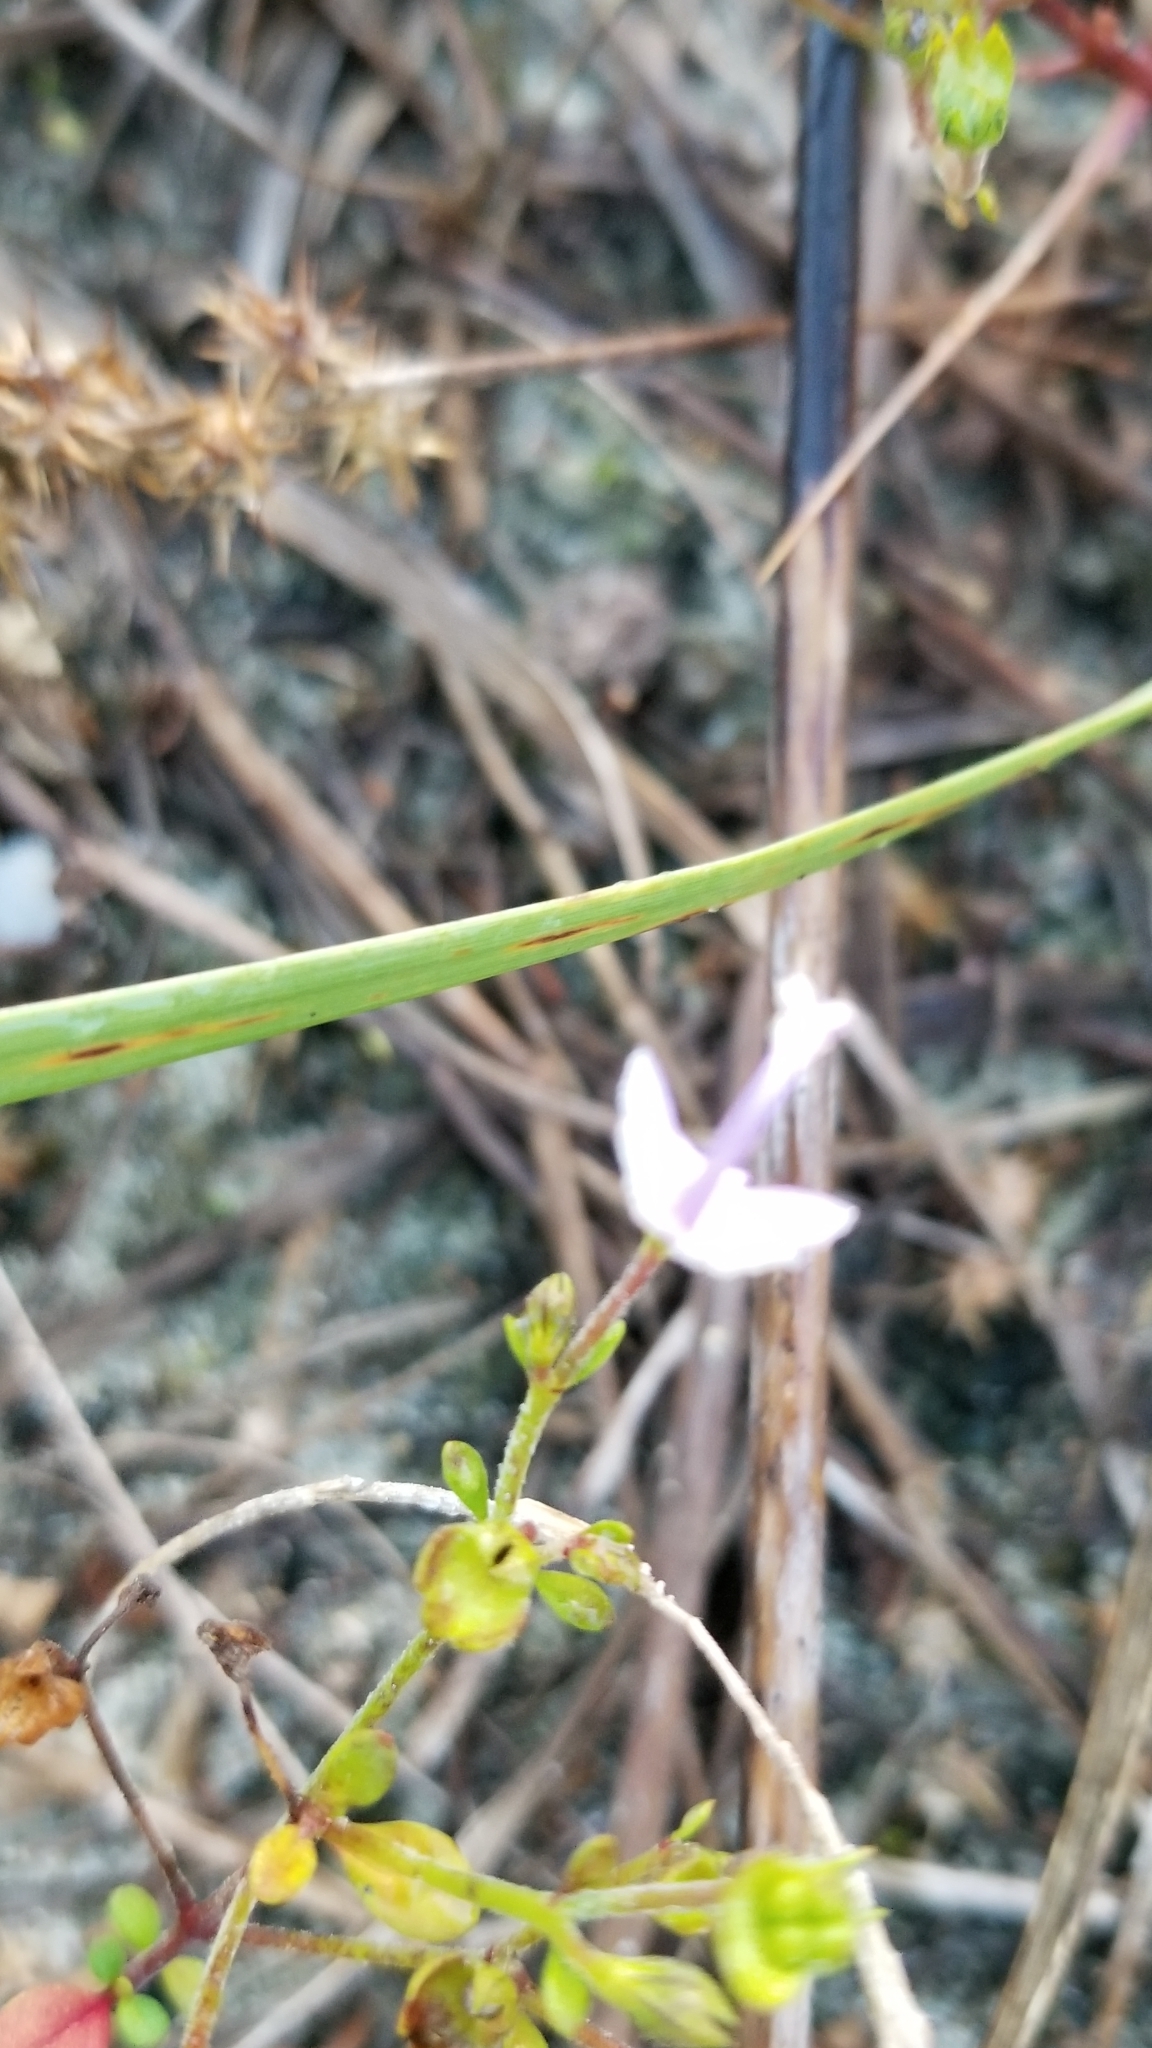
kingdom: Plantae
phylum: Tracheophyta
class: Magnoliopsida
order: Lamiales
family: Lamiaceae
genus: Trichostema
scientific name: Trichostema nesophilum
